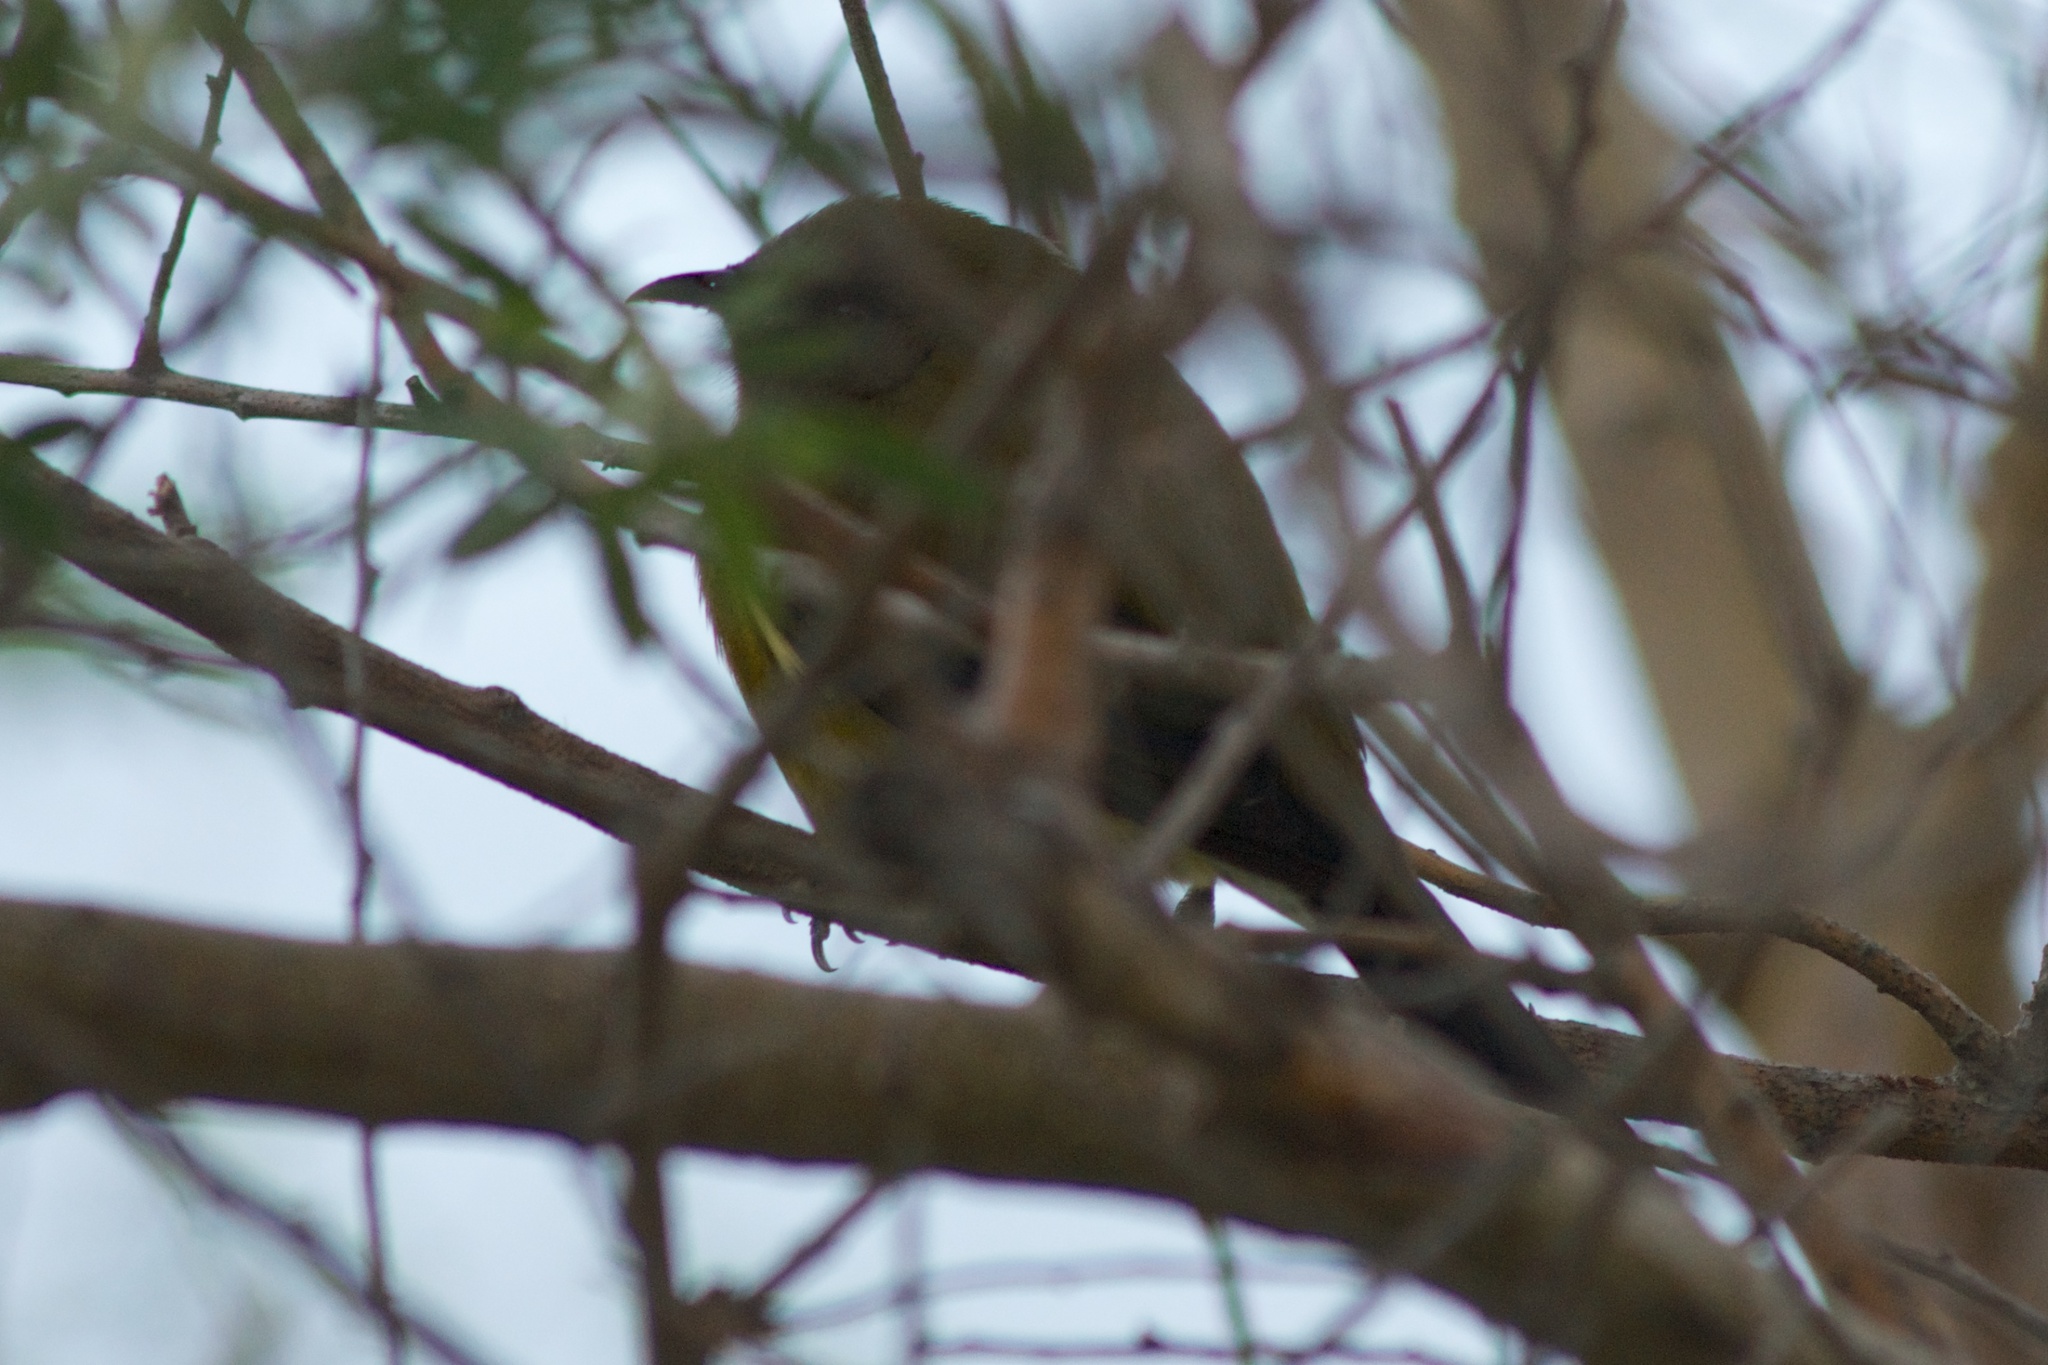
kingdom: Animalia
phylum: Chordata
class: Aves
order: Passeriformes
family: Meliphagidae
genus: Anthornis
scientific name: Anthornis melanura
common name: New zealand bellbird
